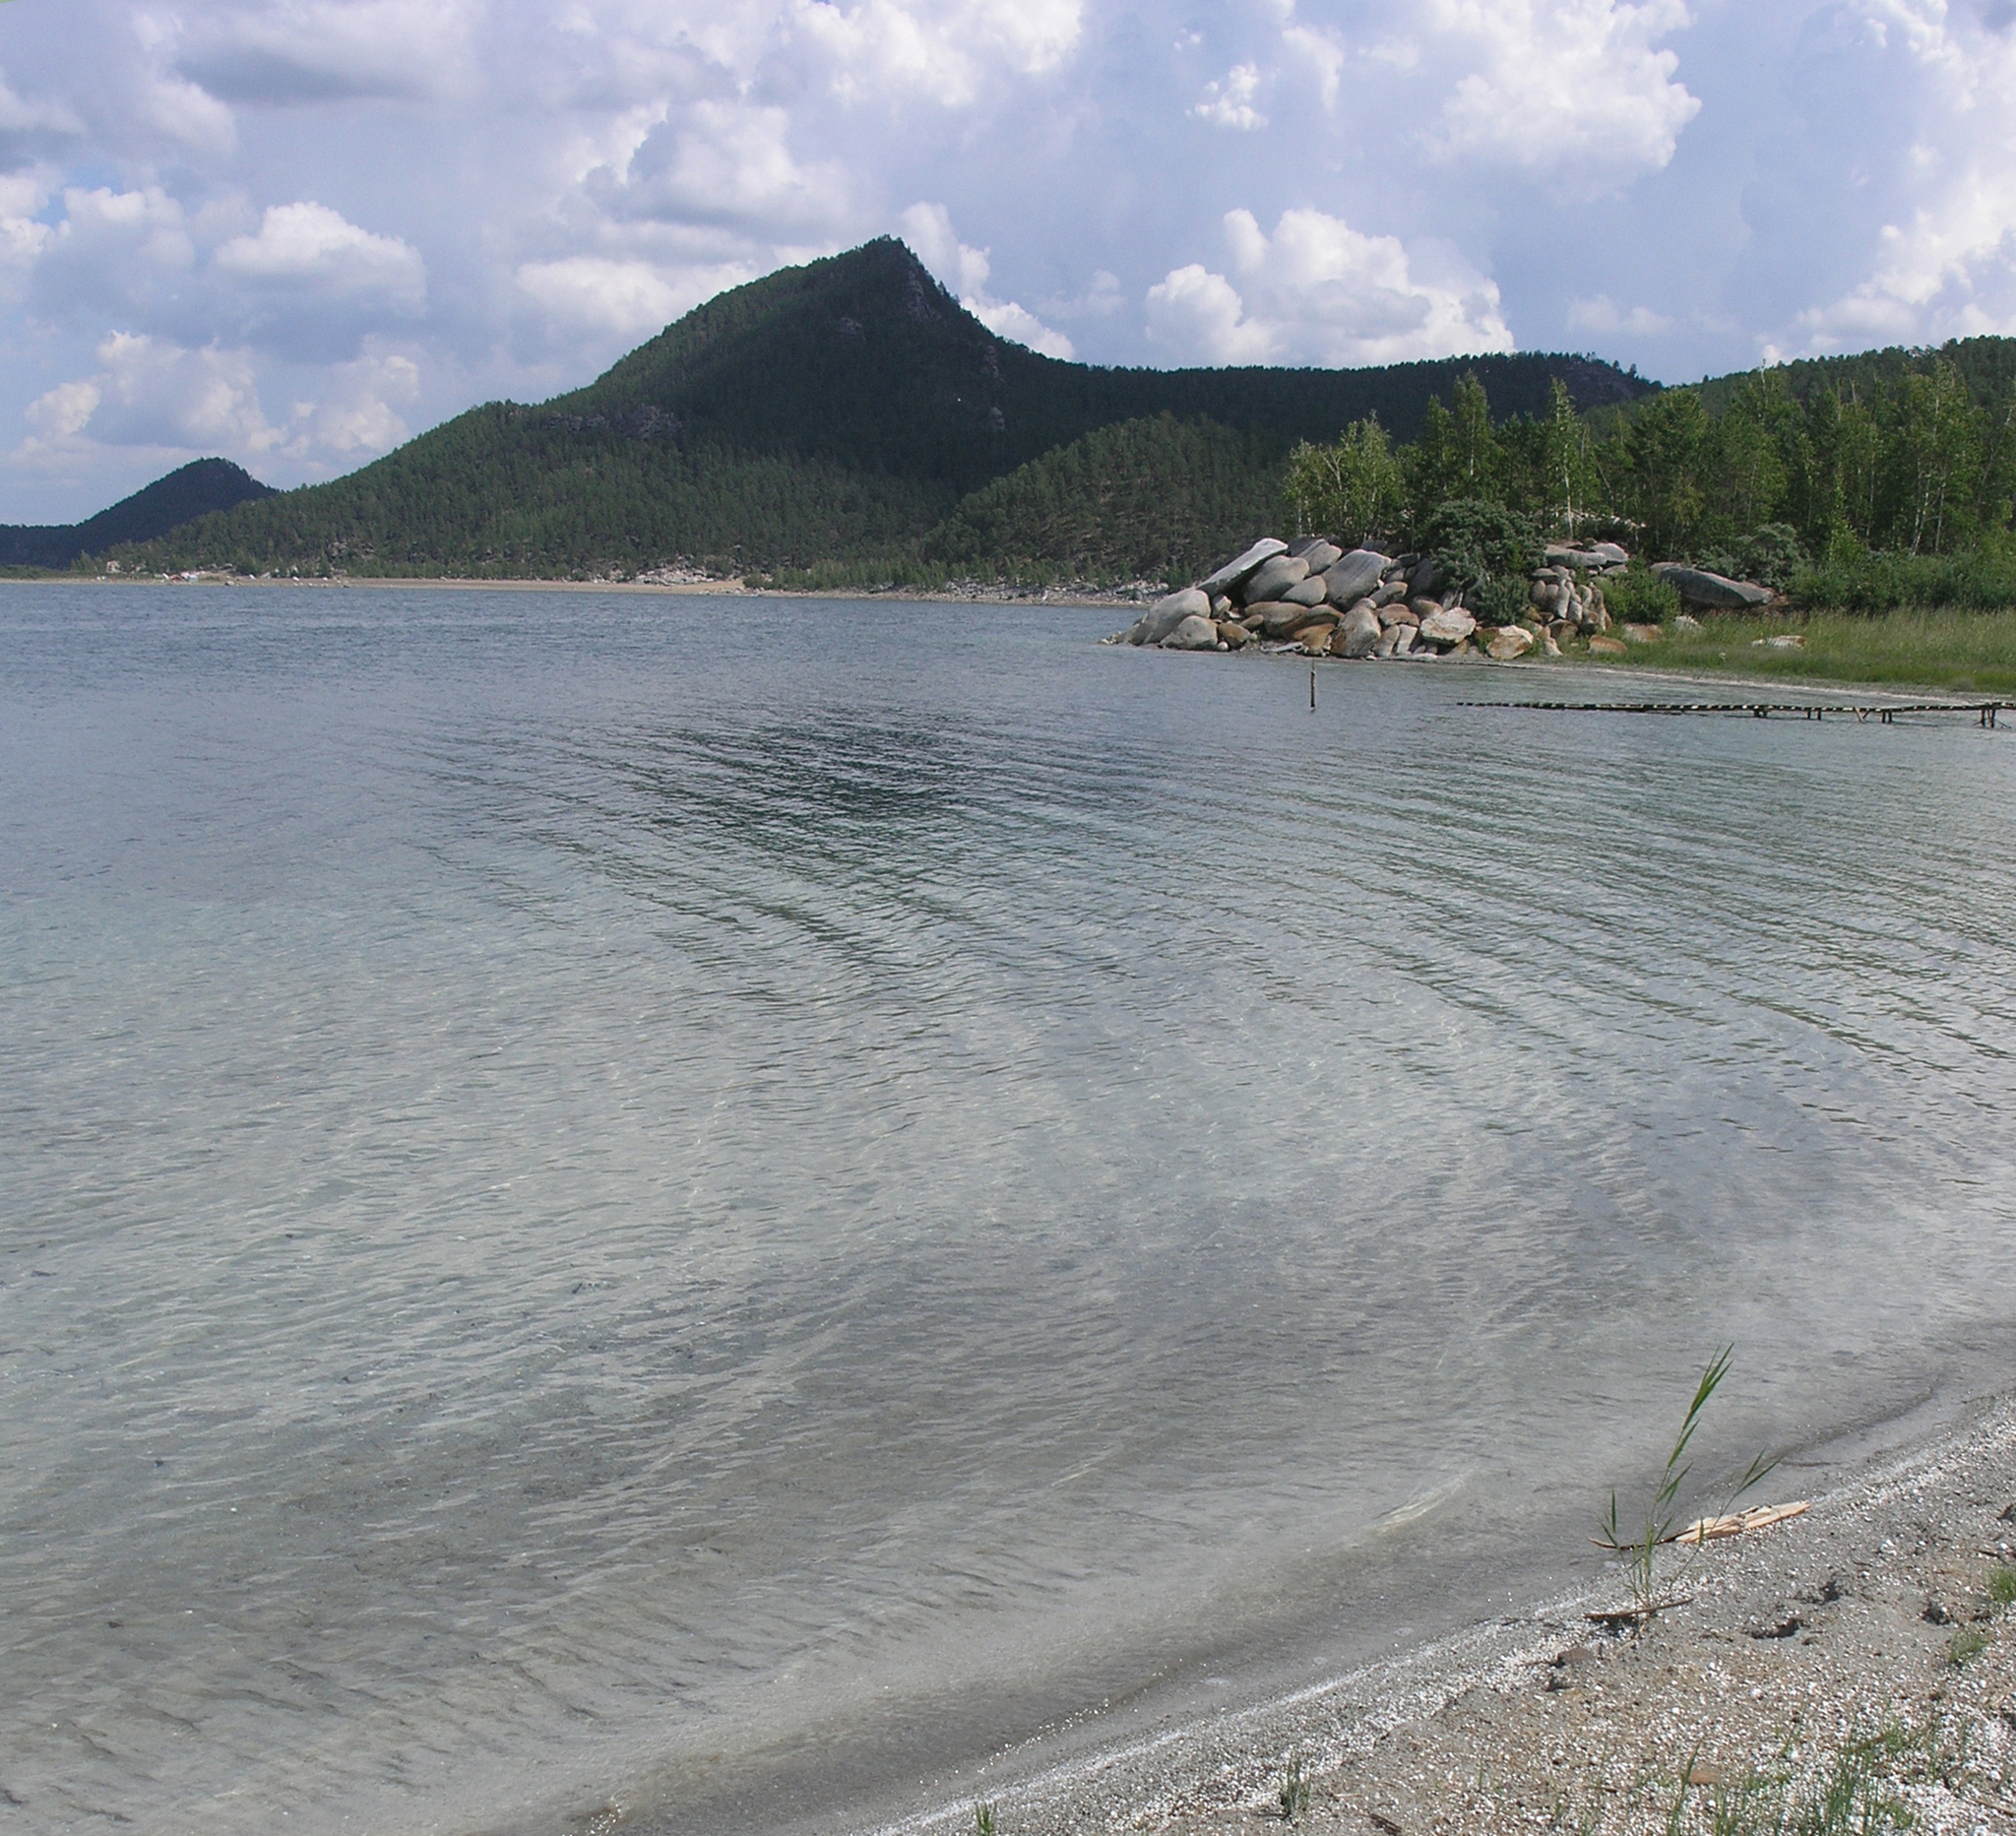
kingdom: Plantae
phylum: Tracheophyta
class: Pinopsida
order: Pinales
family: Pinaceae
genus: Pinus
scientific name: Pinus sylvestris
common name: Scots pine
